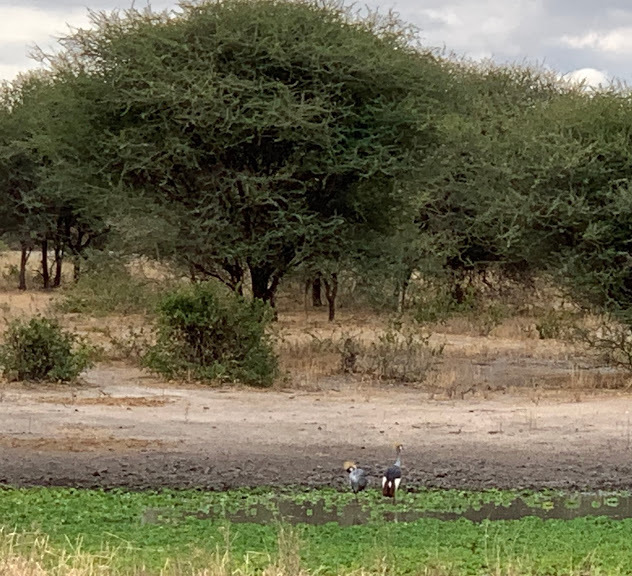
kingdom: Animalia
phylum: Chordata
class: Aves
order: Gruiformes
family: Gruidae
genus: Balearica
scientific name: Balearica regulorum
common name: Grey crowned crane
